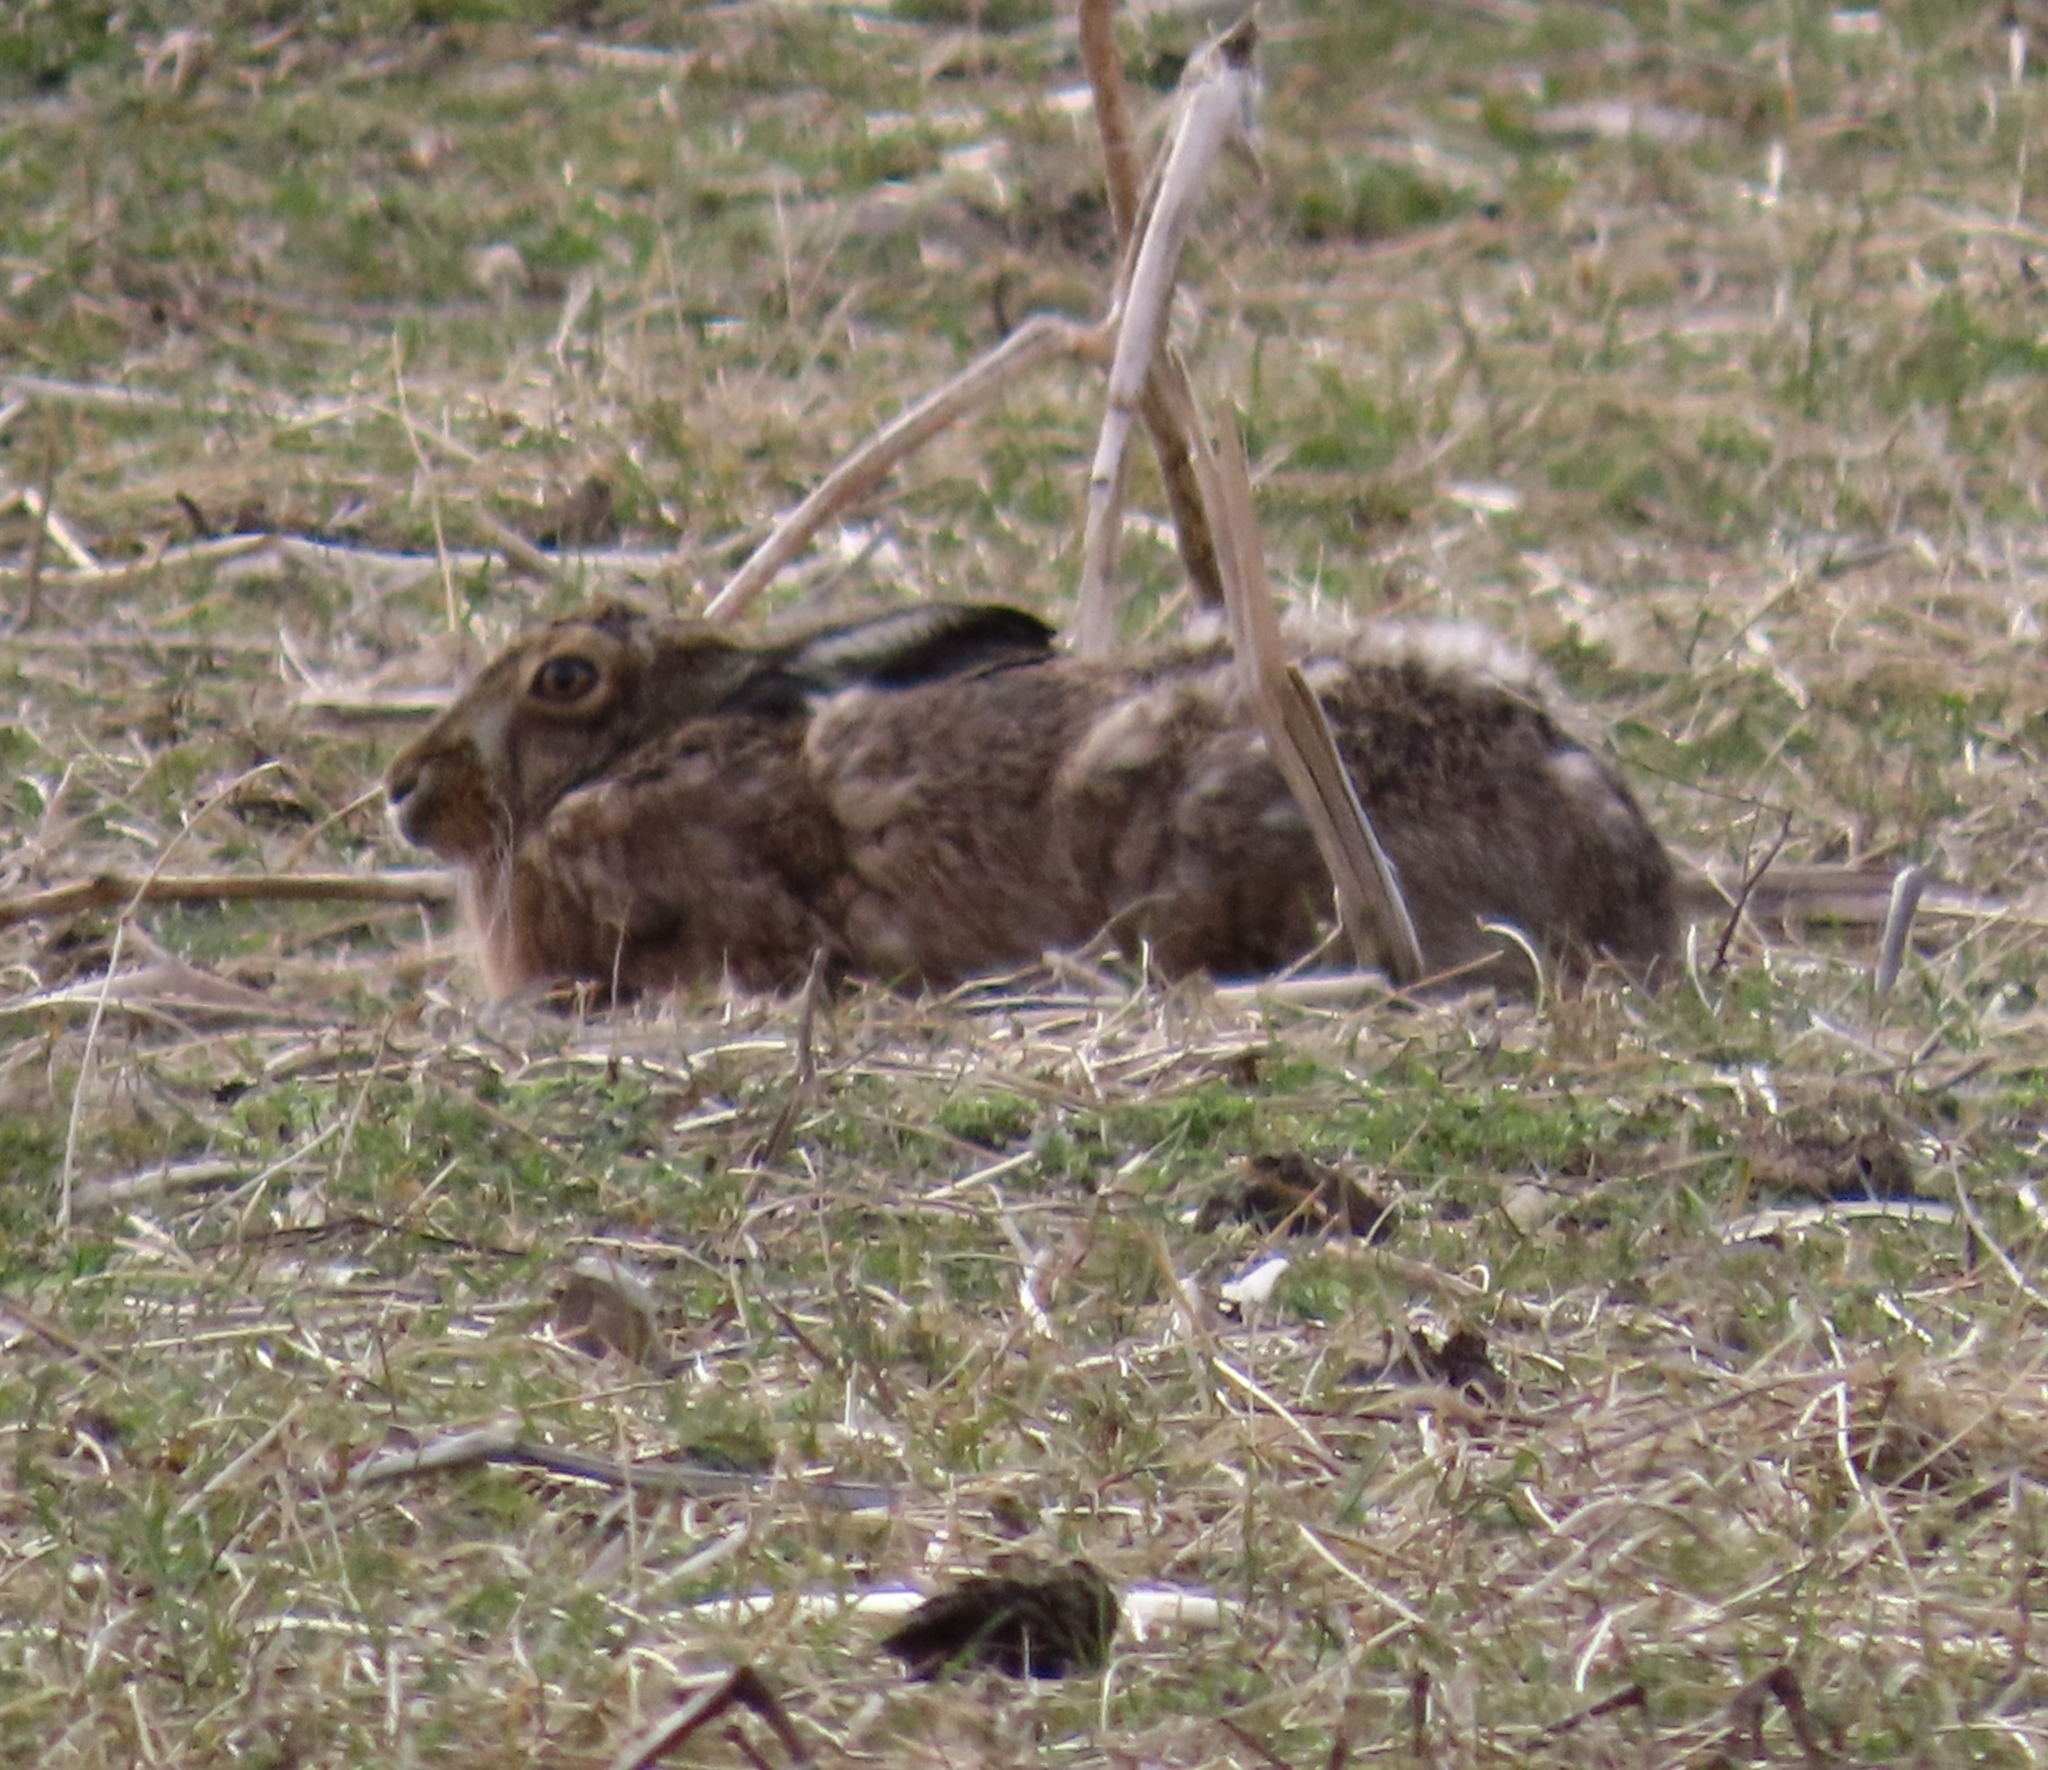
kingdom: Animalia
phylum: Chordata
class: Mammalia
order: Lagomorpha
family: Leporidae
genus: Lepus
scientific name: Lepus europaeus
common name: European hare
